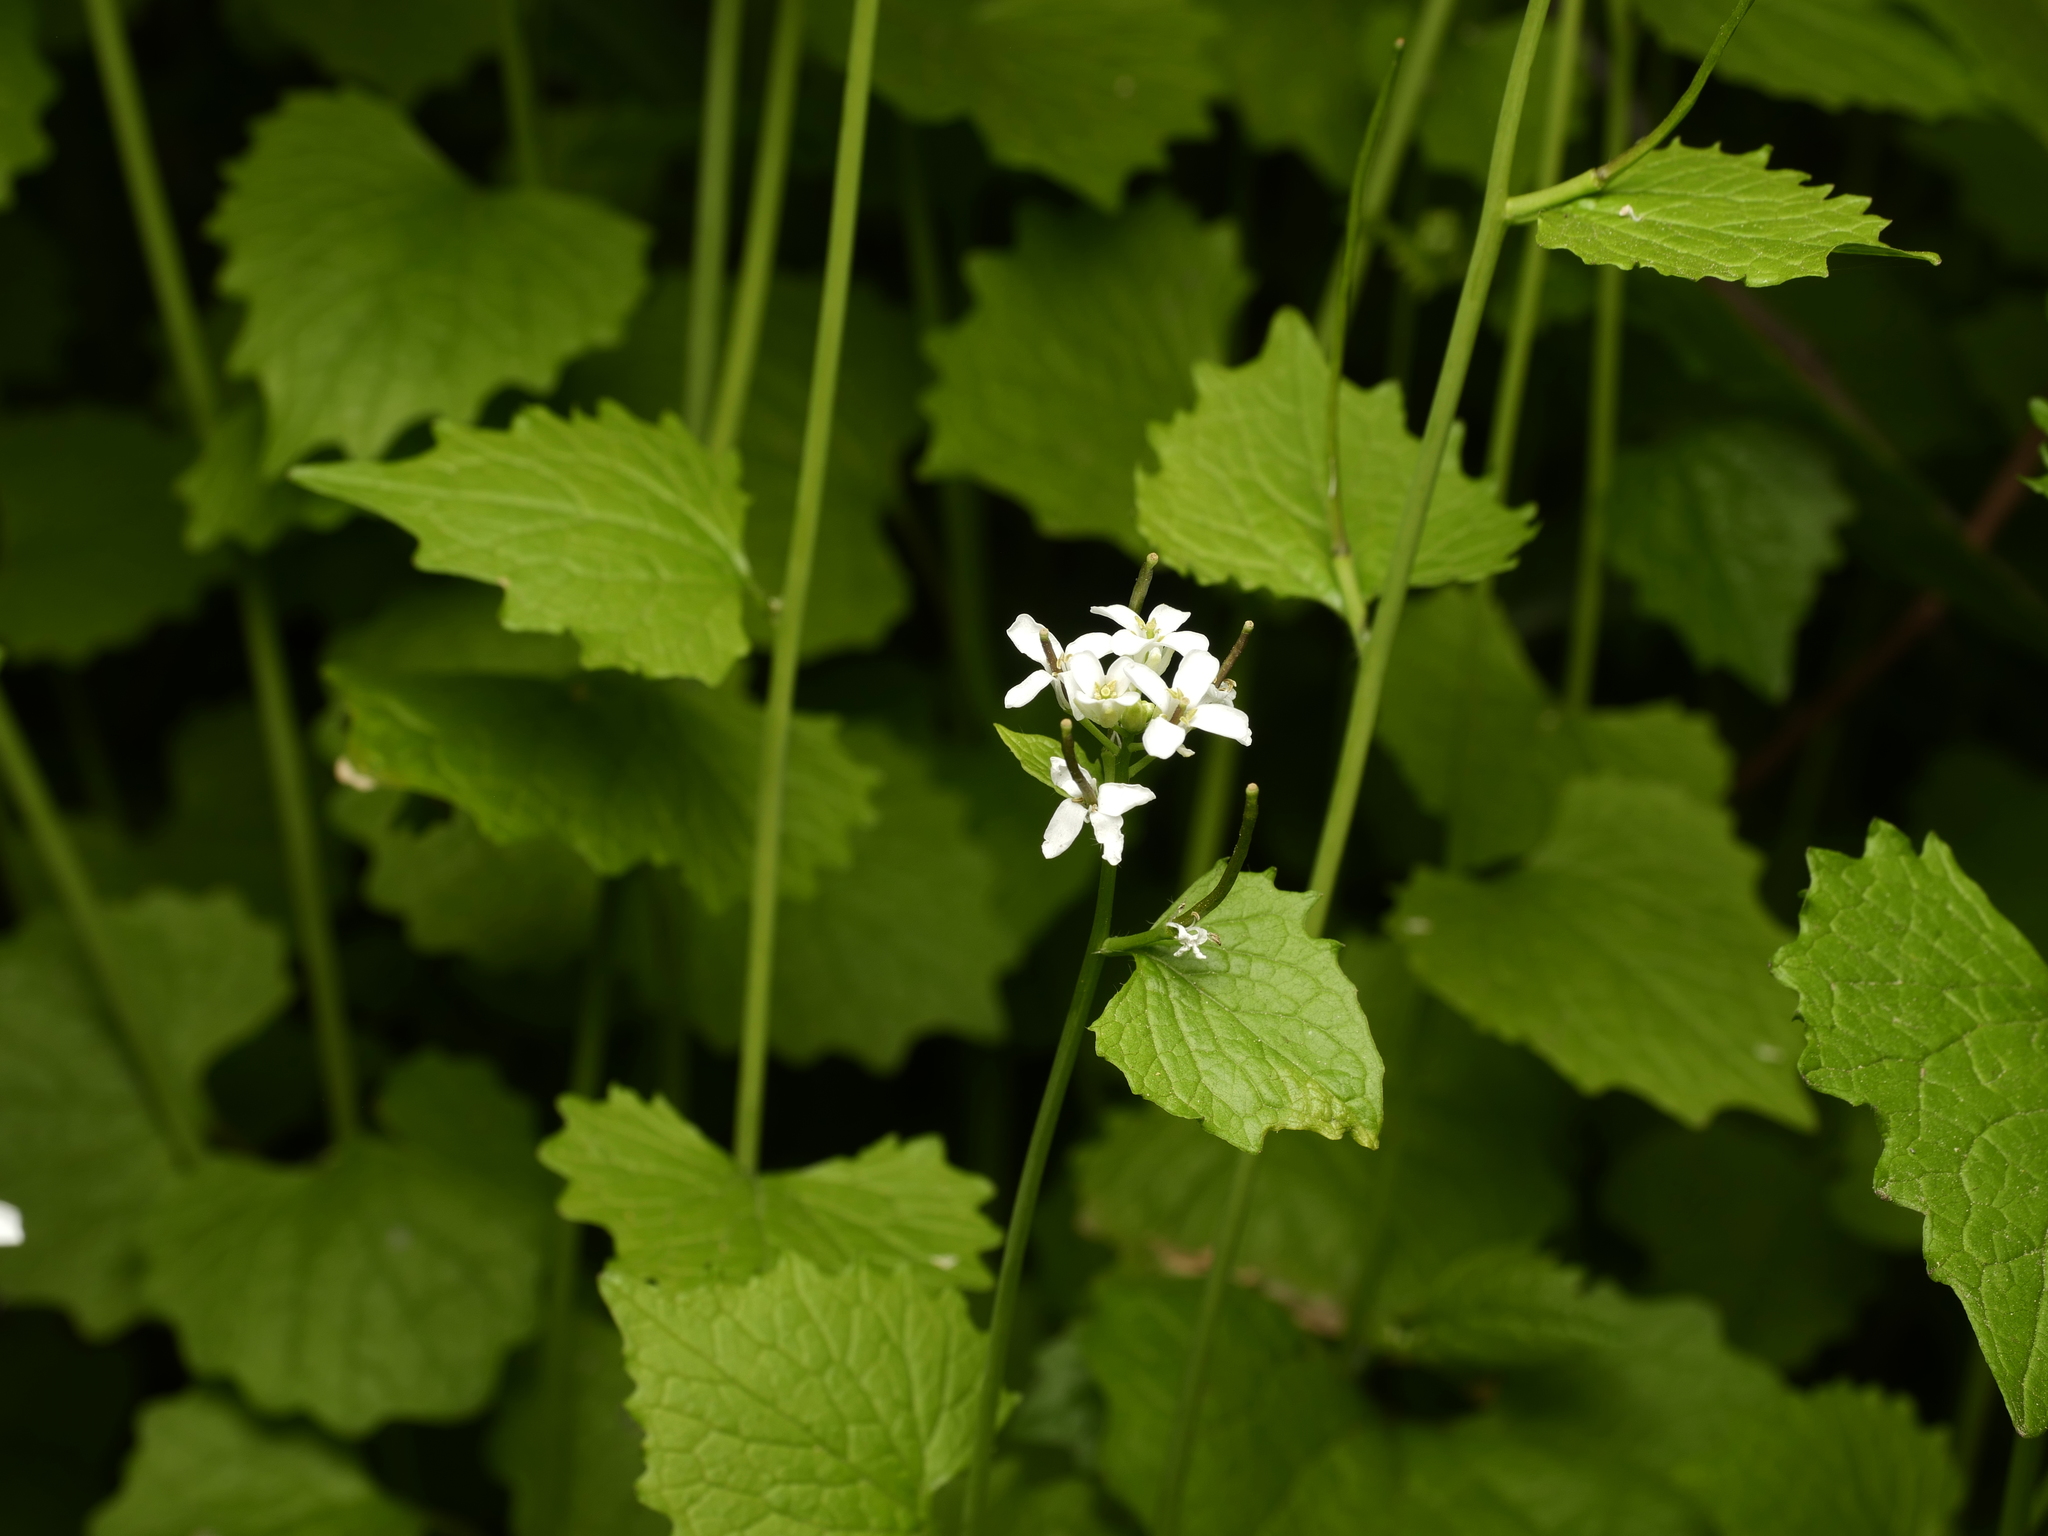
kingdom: Plantae
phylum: Tracheophyta
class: Magnoliopsida
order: Brassicales
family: Brassicaceae
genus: Alliaria
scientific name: Alliaria petiolata
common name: Garlic mustard
